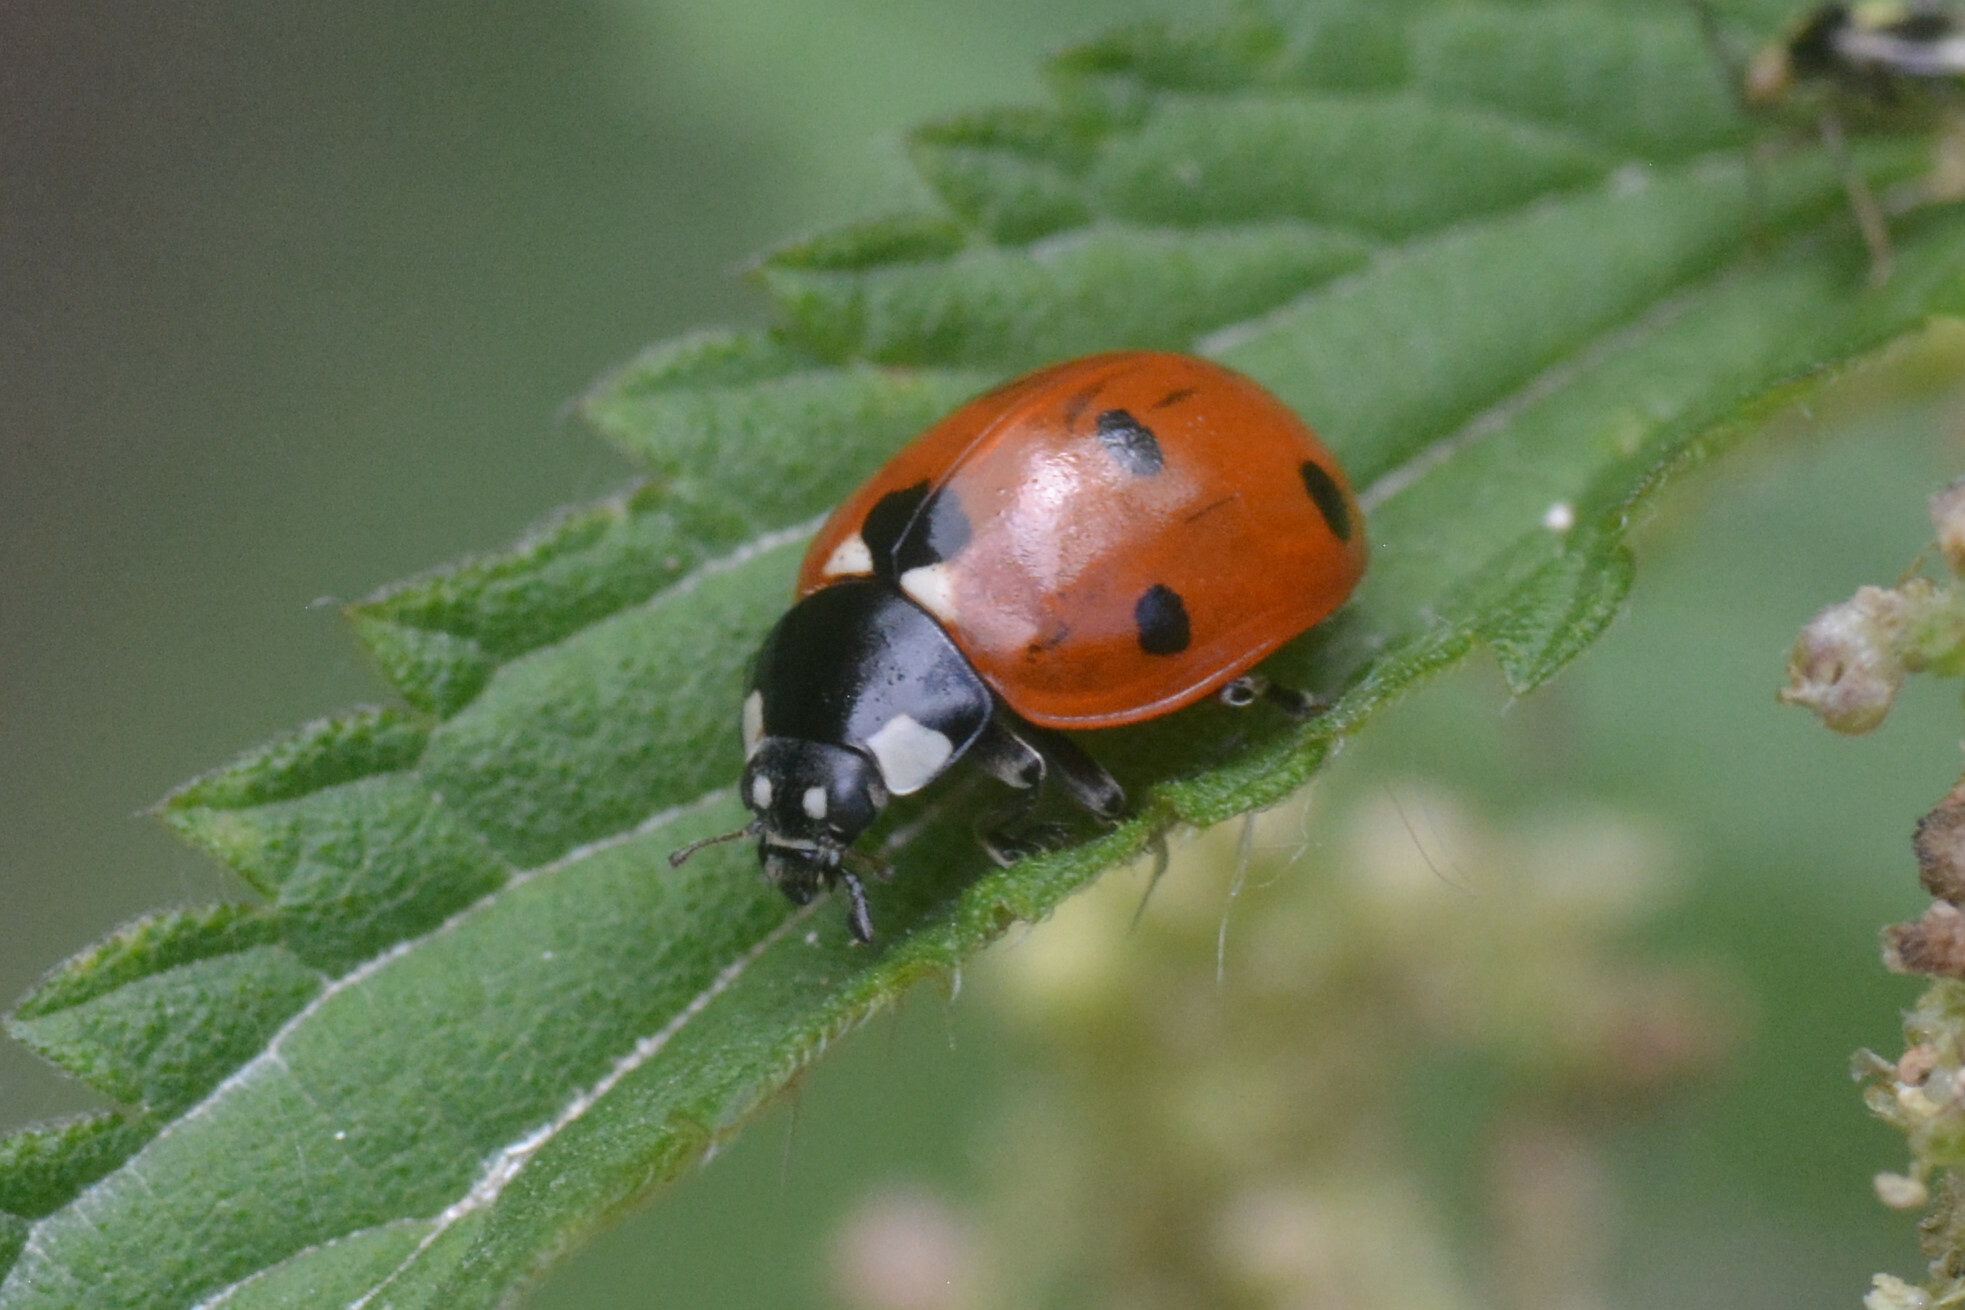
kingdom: Animalia
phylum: Arthropoda
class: Insecta
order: Coleoptera
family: Coccinellidae
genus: Coccinella
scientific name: Coccinella septempunctata
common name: Sevenspotted lady beetle
